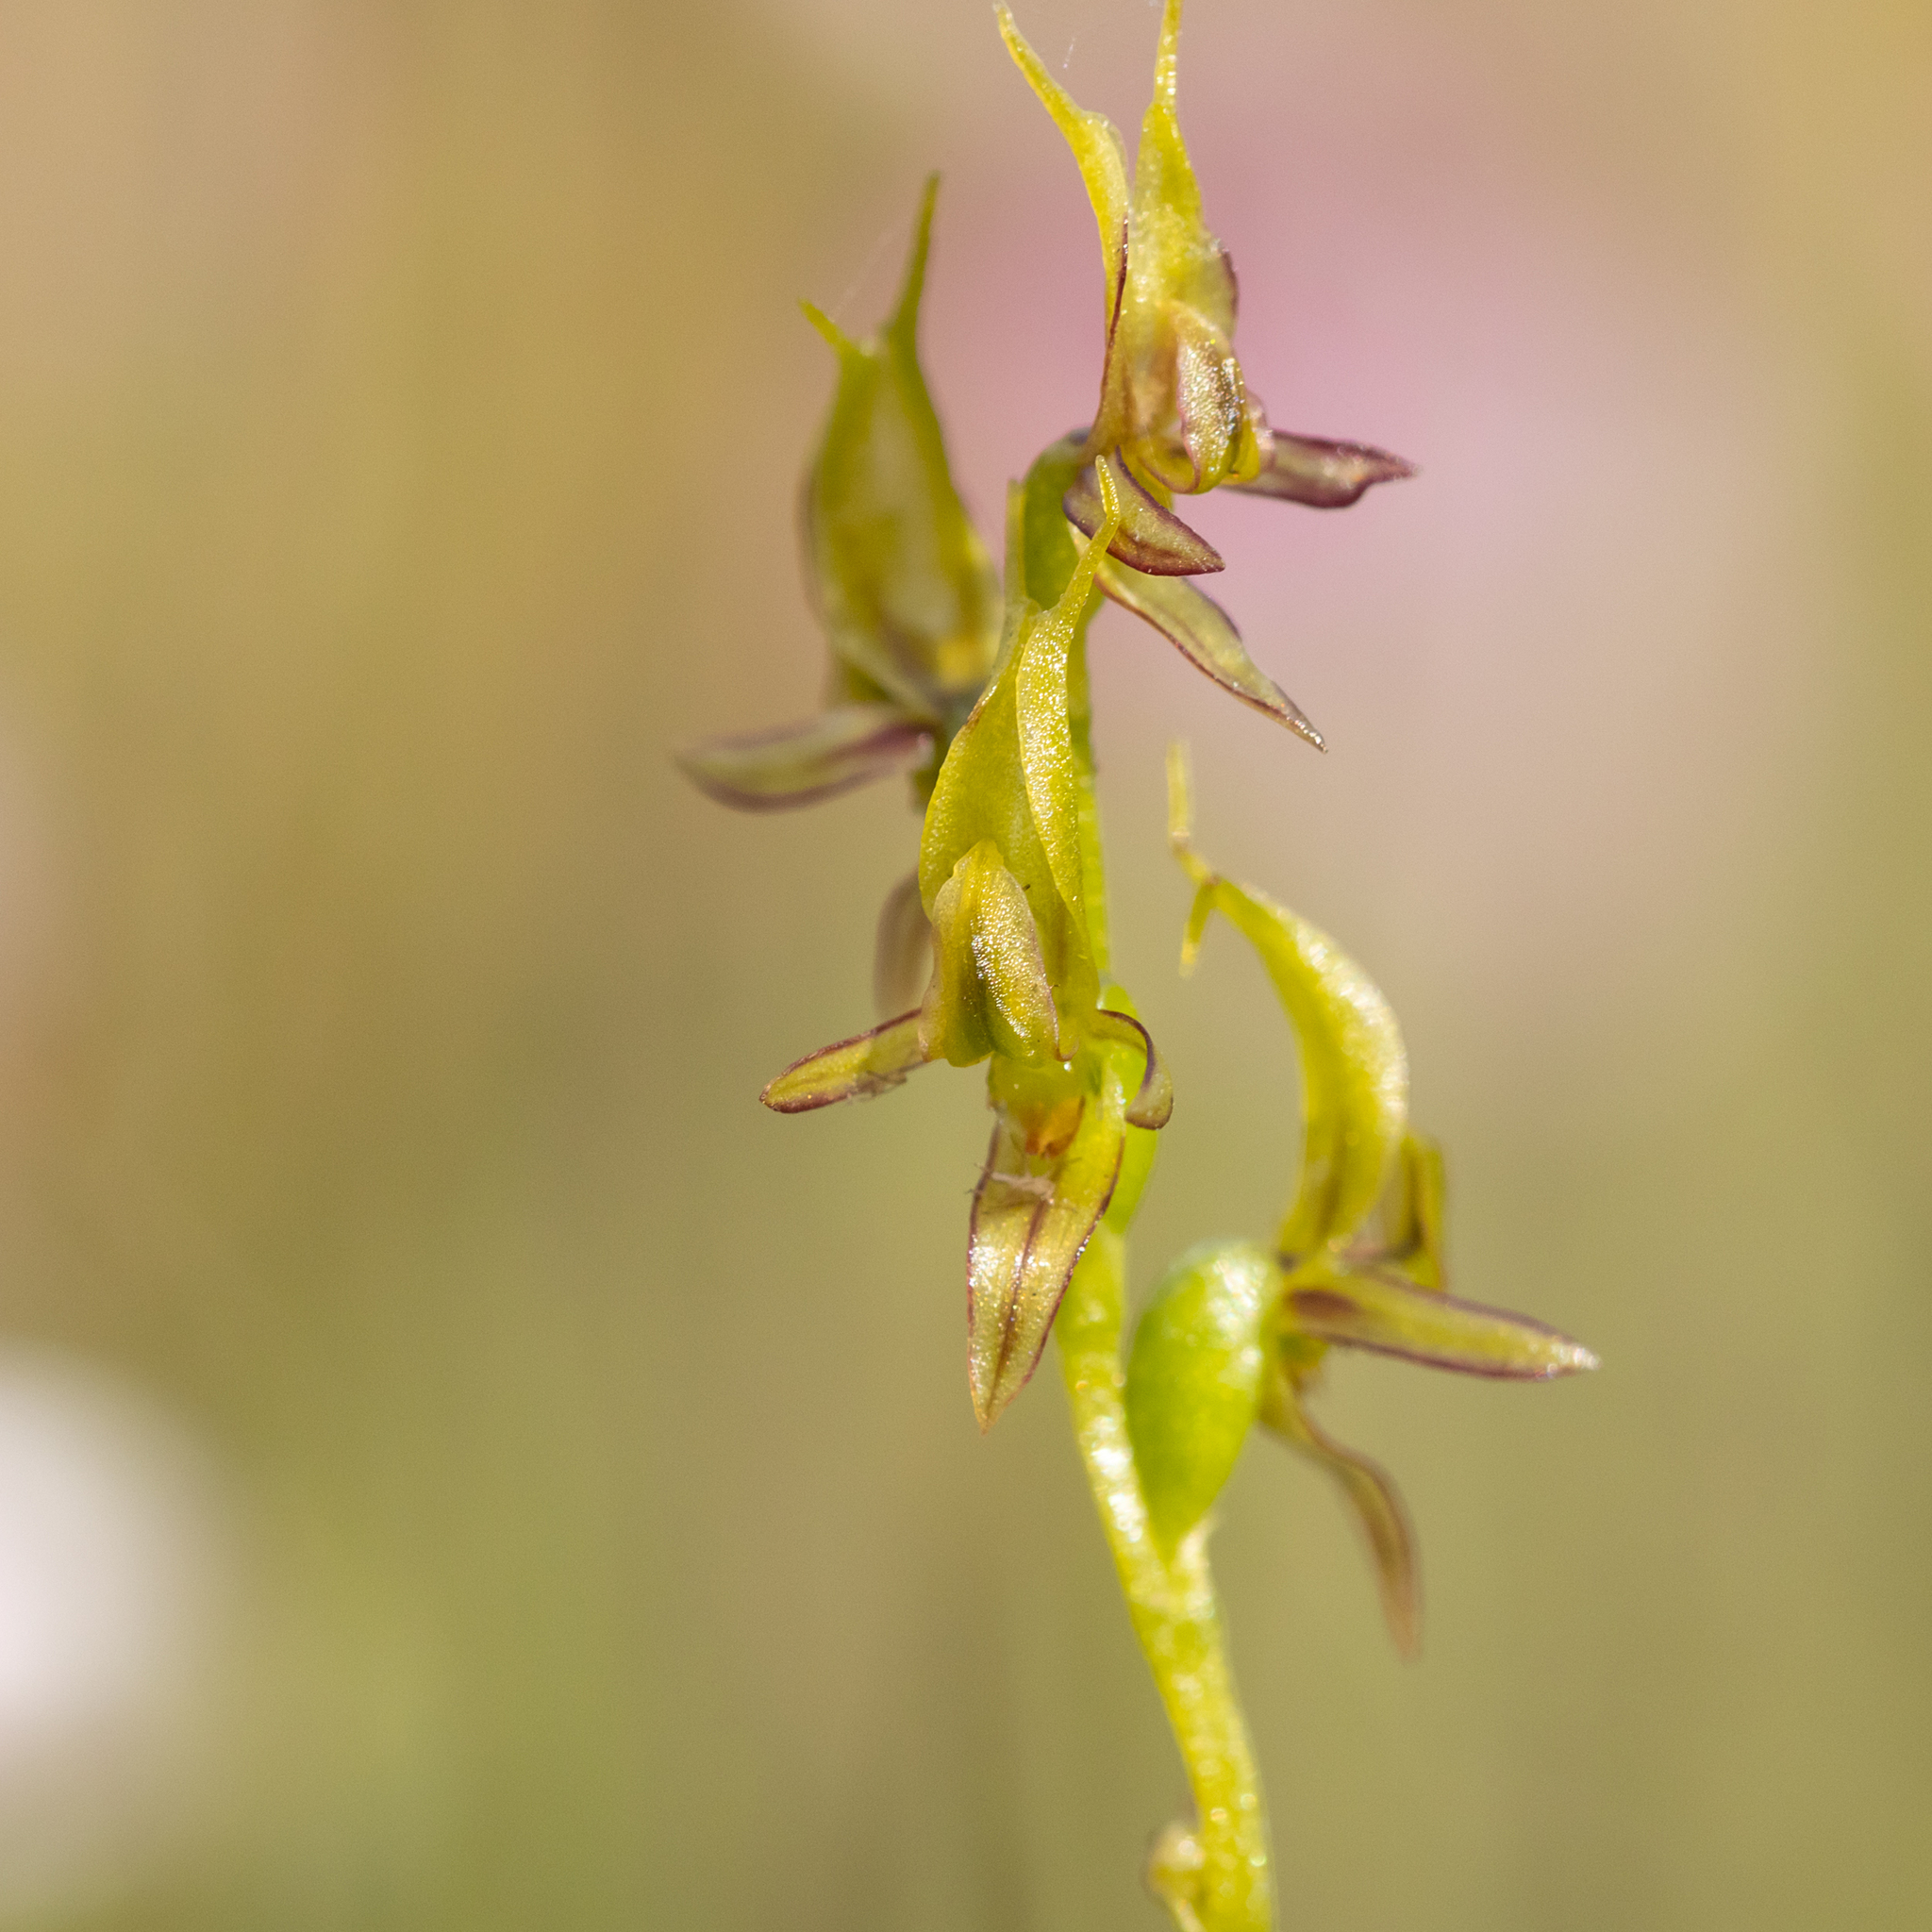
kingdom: Plantae
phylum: Tracheophyta
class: Liliopsida
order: Asparagales
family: Orchidaceae
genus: Prasophyllum
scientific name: Prasophyllum gracile
